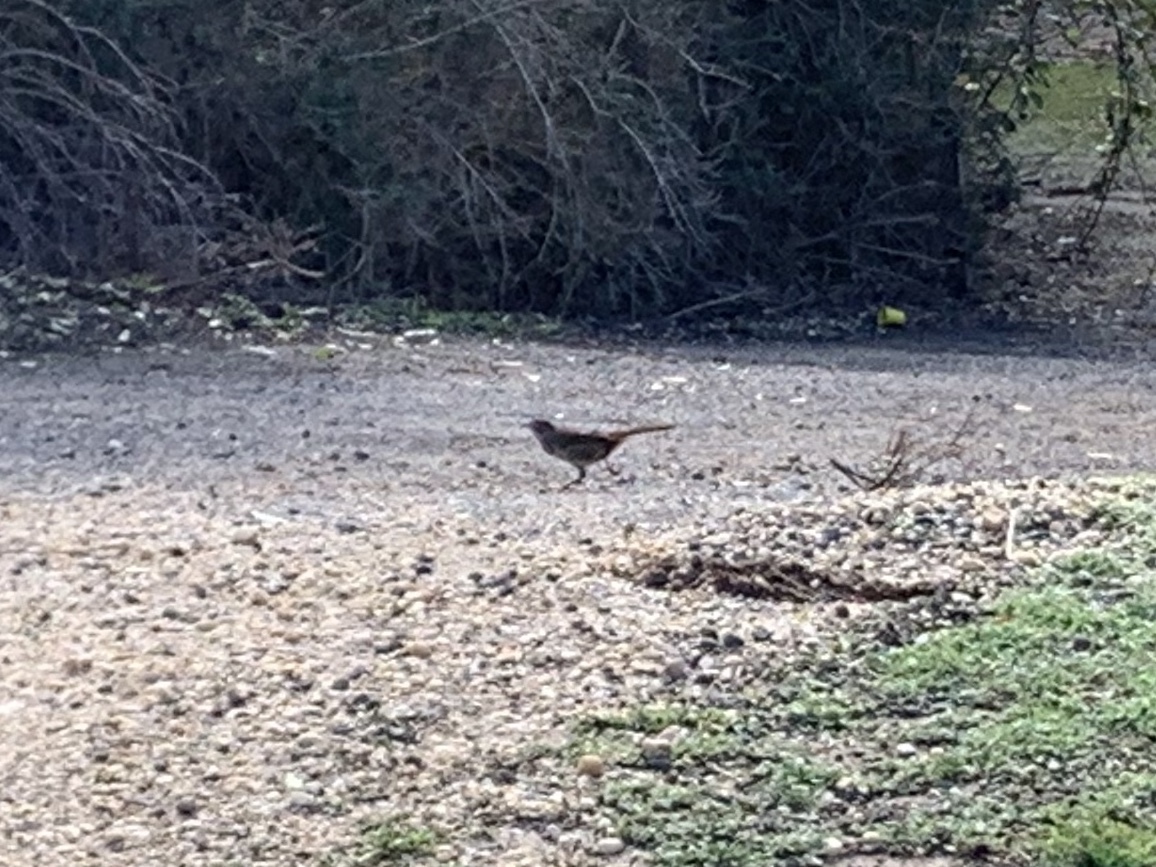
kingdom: Animalia
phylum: Chordata
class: Aves
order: Passeriformes
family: Dasyornithidae
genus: Dasyornis
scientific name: Dasyornis broadbenti
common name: Rufous bristlebird
